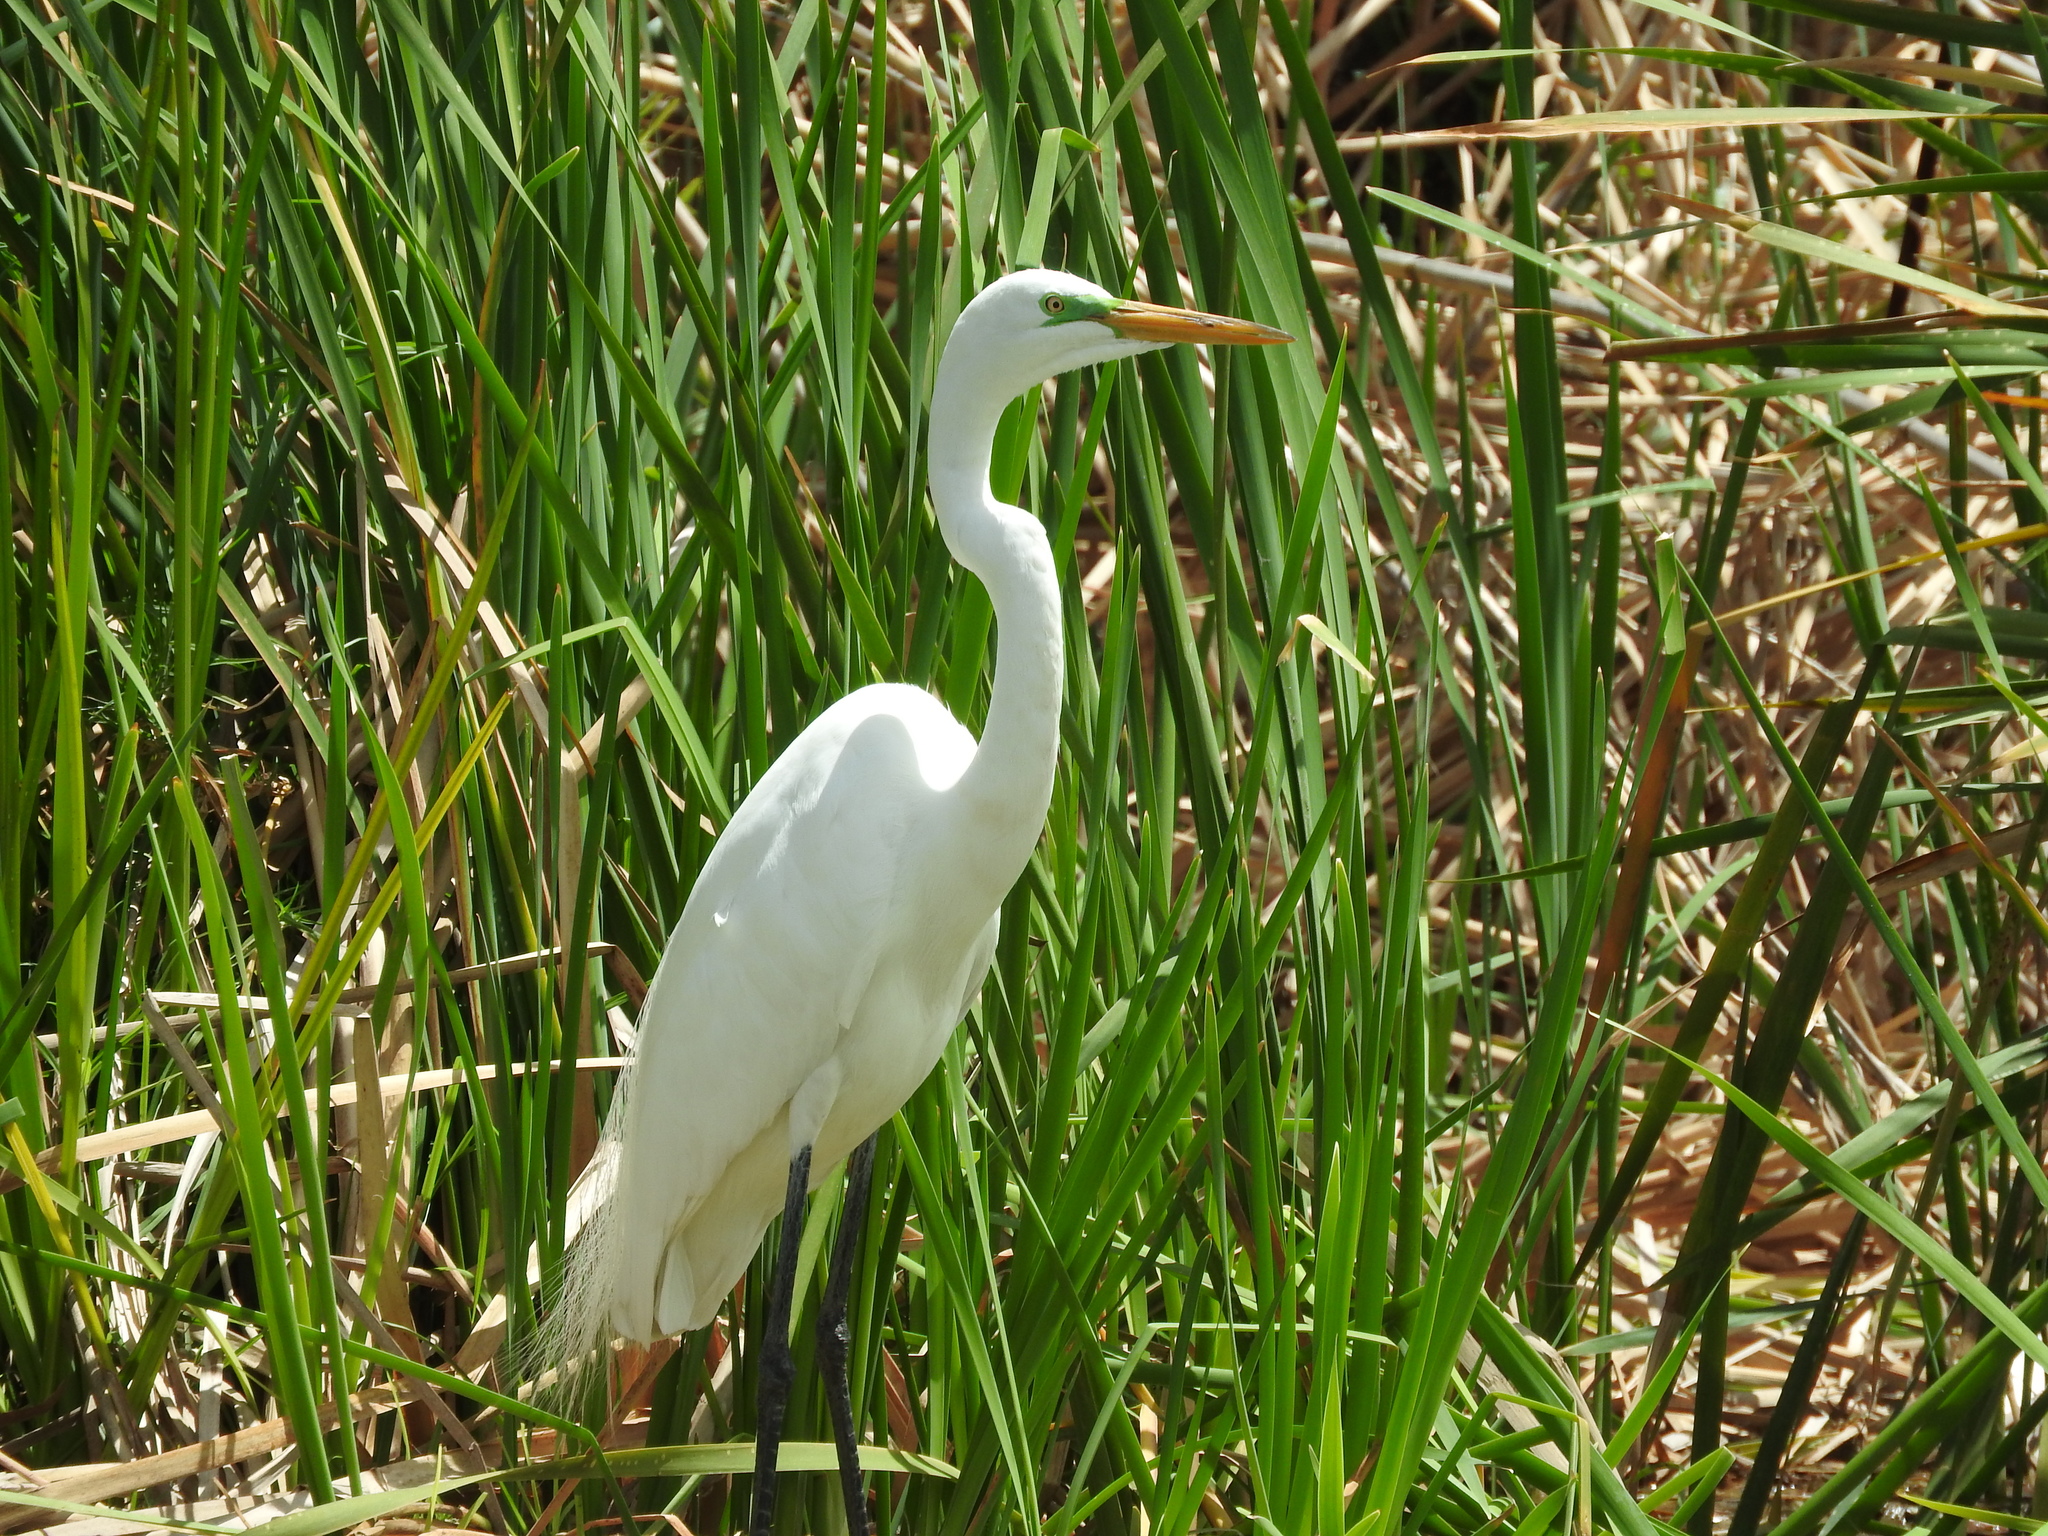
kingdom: Animalia
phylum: Chordata
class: Aves
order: Pelecaniformes
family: Ardeidae
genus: Ardea
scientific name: Ardea alba
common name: Great egret
